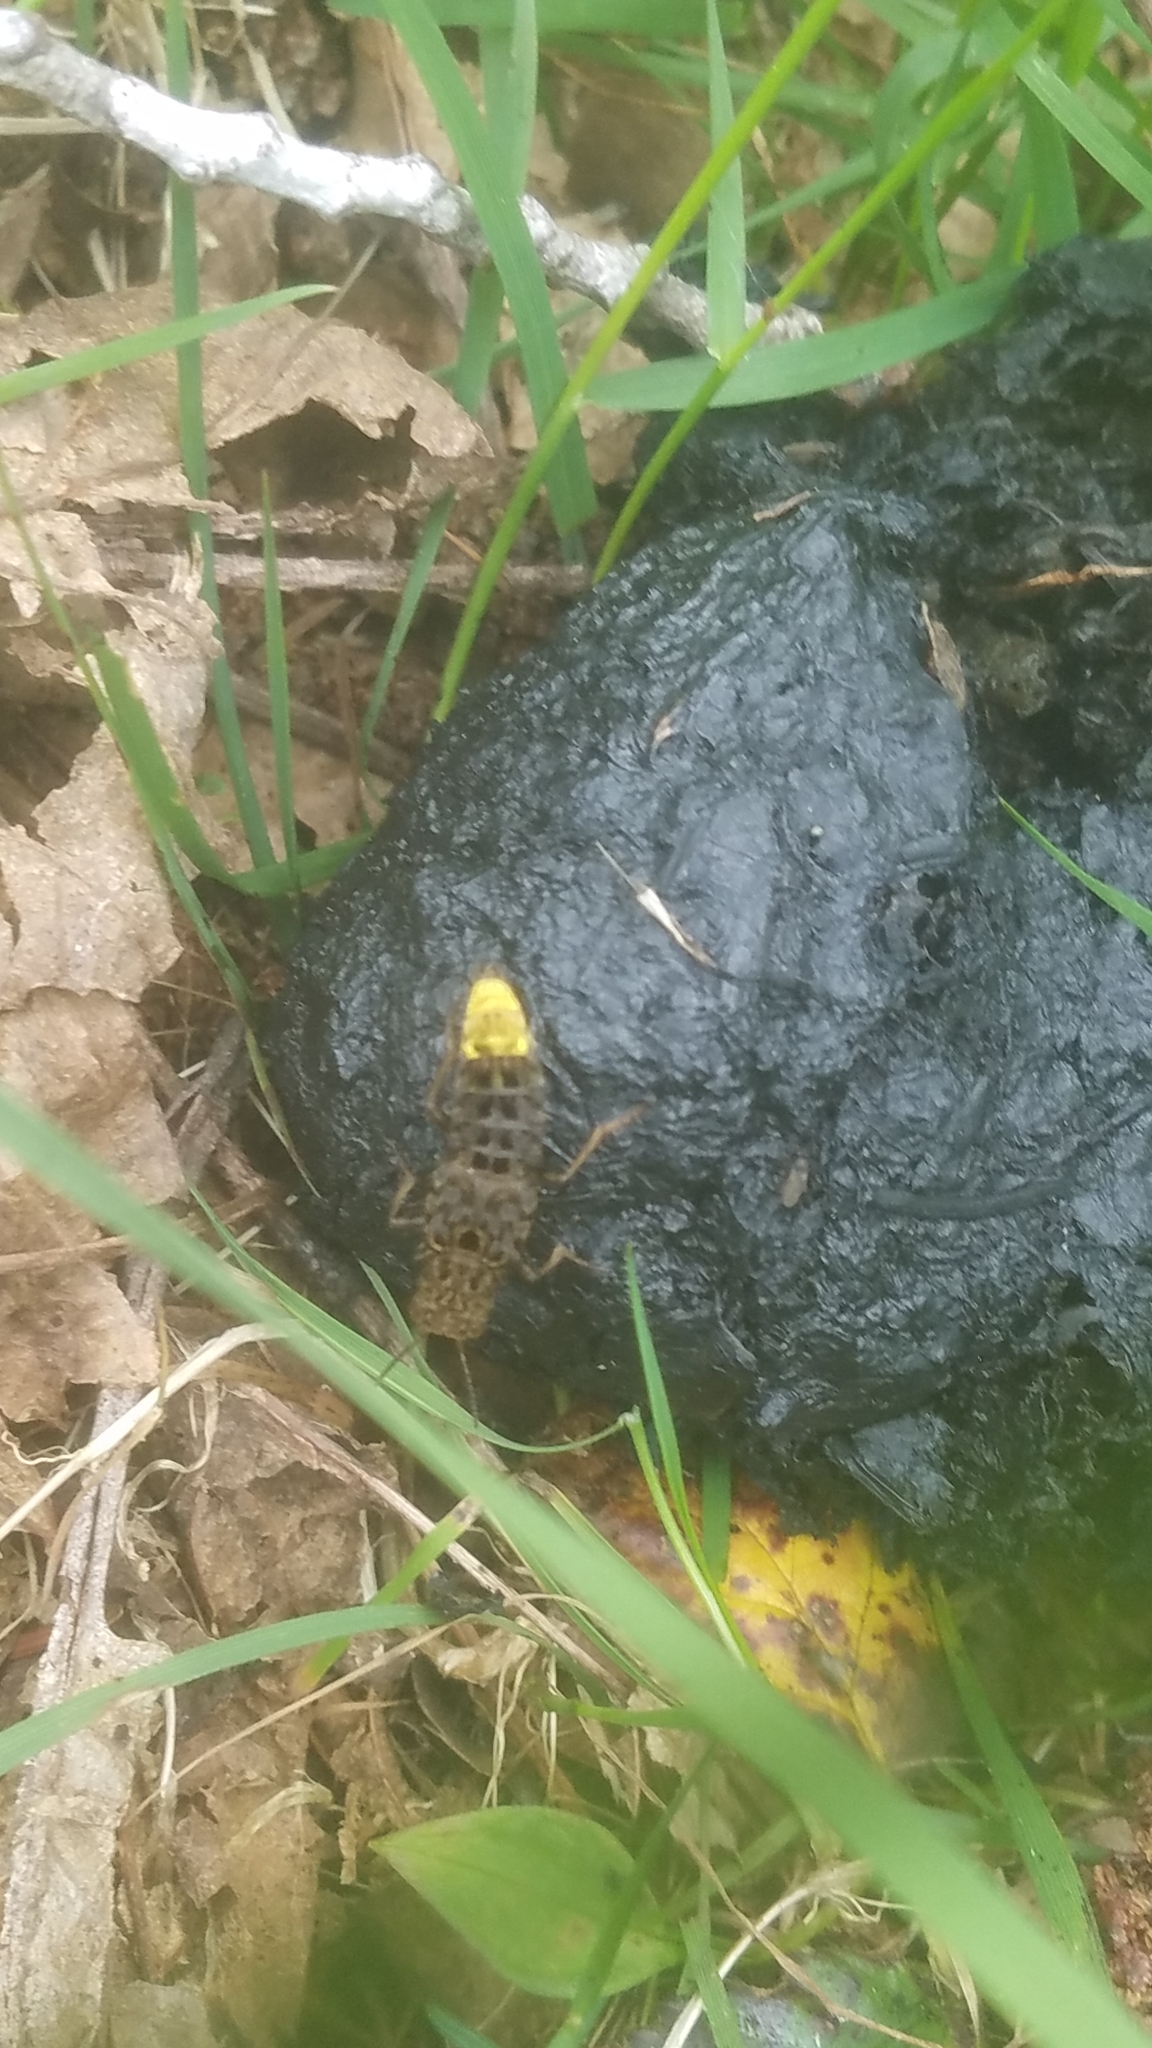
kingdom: Animalia
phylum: Arthropoda
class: Insecta
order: Coleoptera
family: Staphylinidae
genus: Ontholestes
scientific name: Ontholestes cingulatus
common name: Gold-and-brown rove beetle
